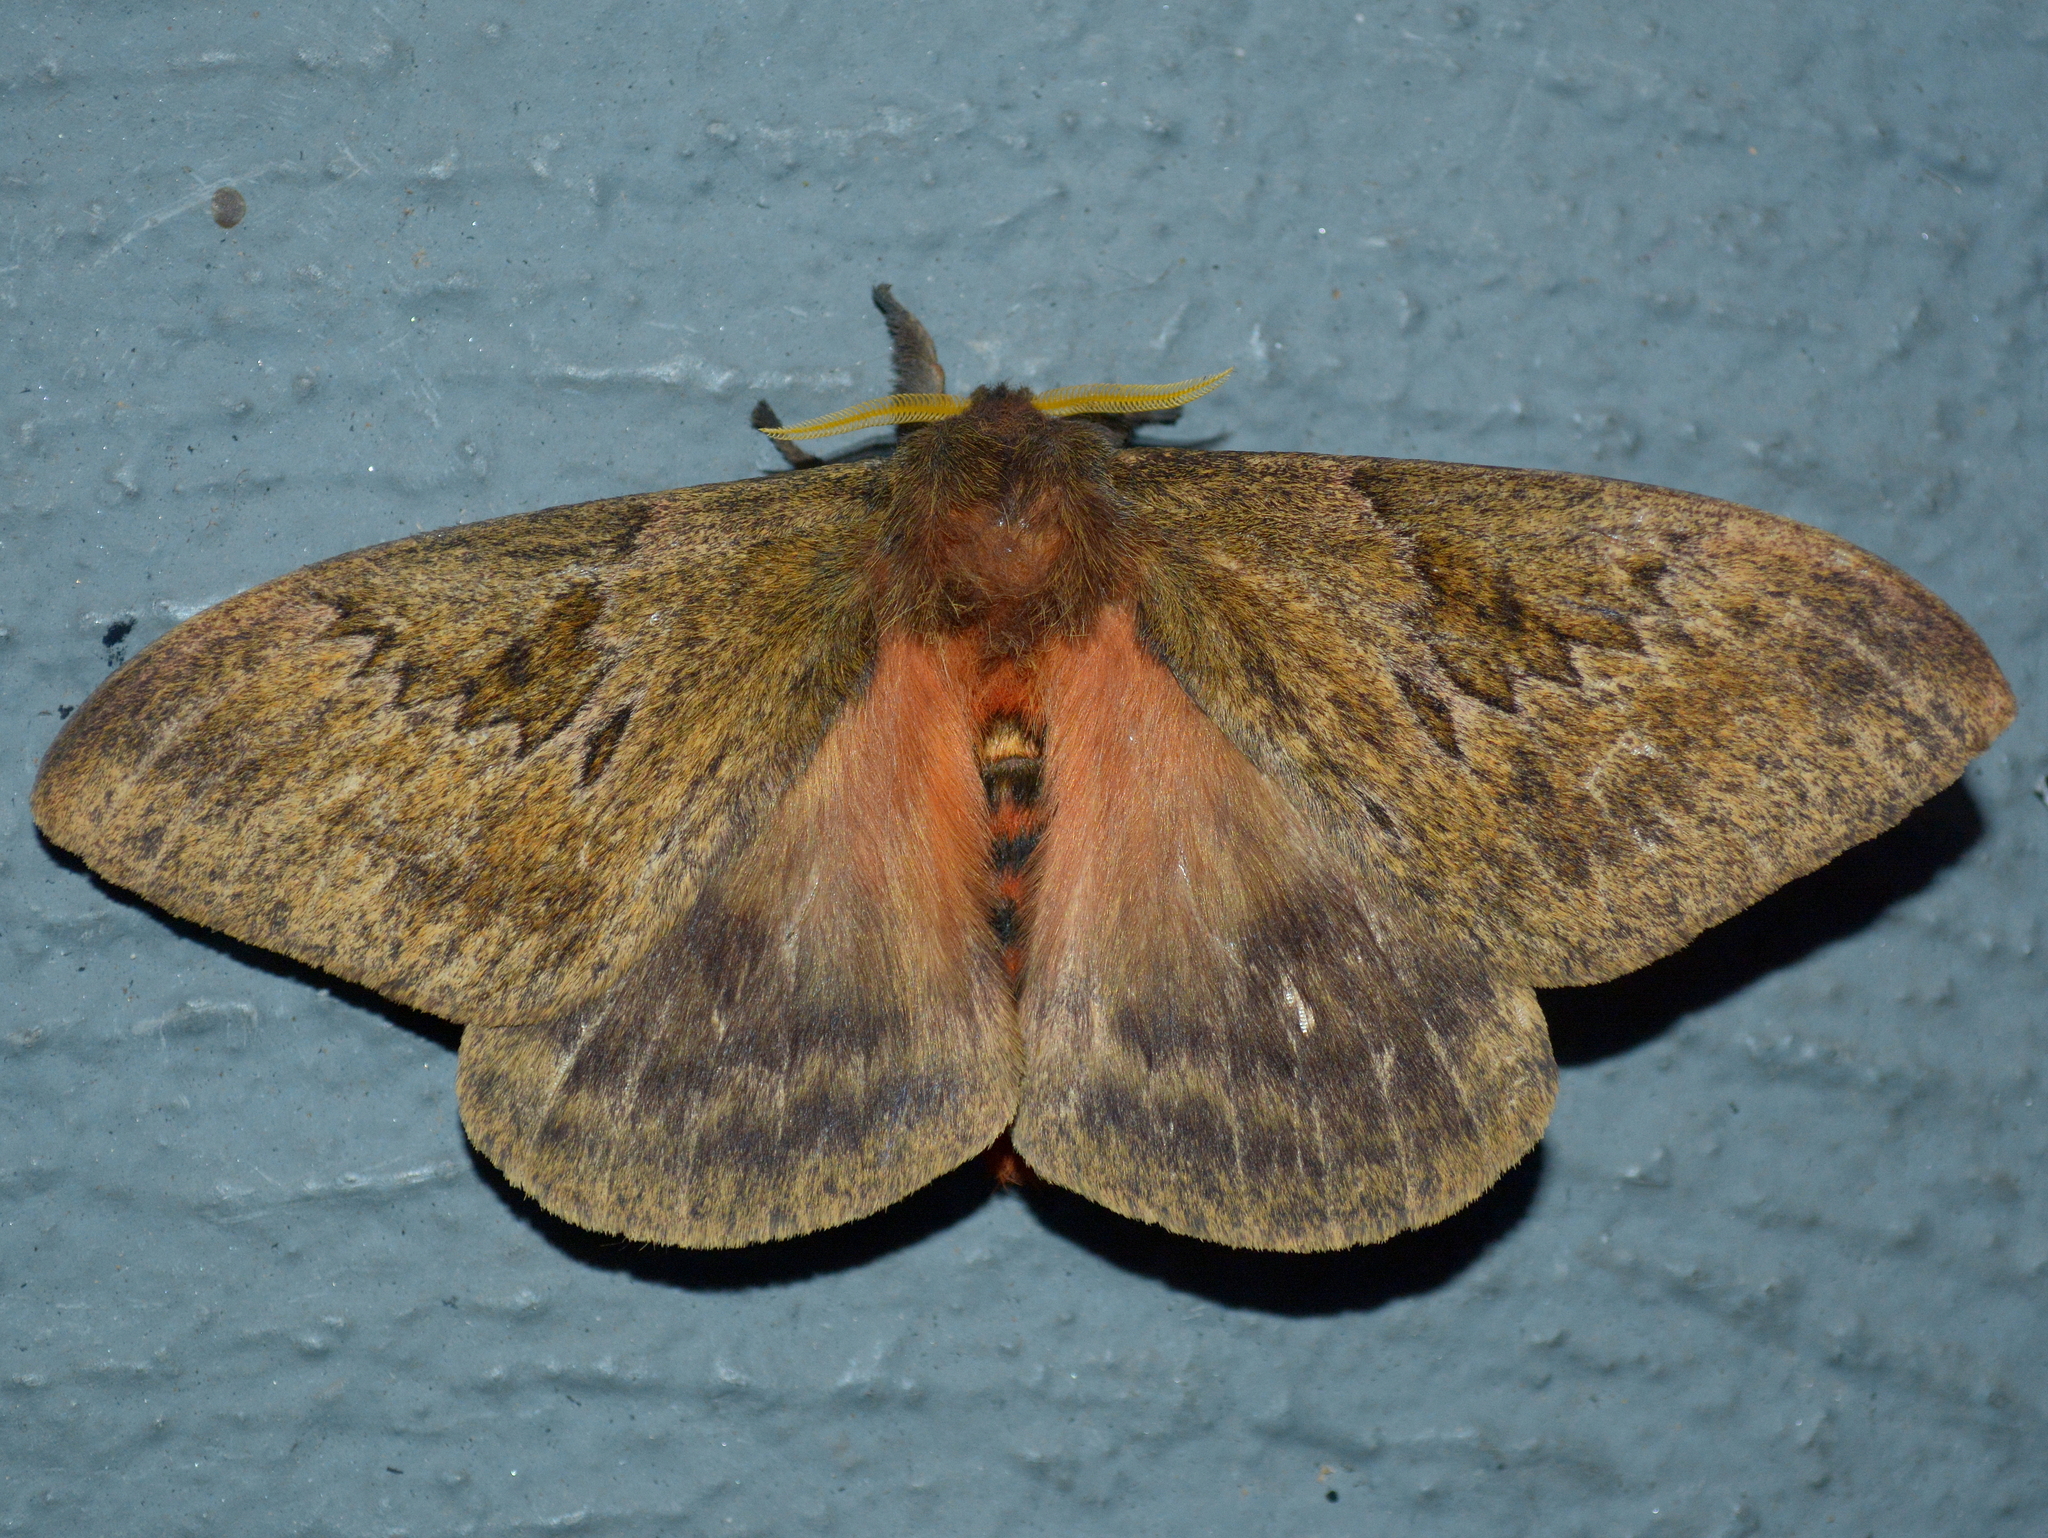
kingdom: Animalia
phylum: Arthropoda
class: Insecta
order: Lepidoptera
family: Saturniidae
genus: Dirphia
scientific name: Dirphia muscosa
